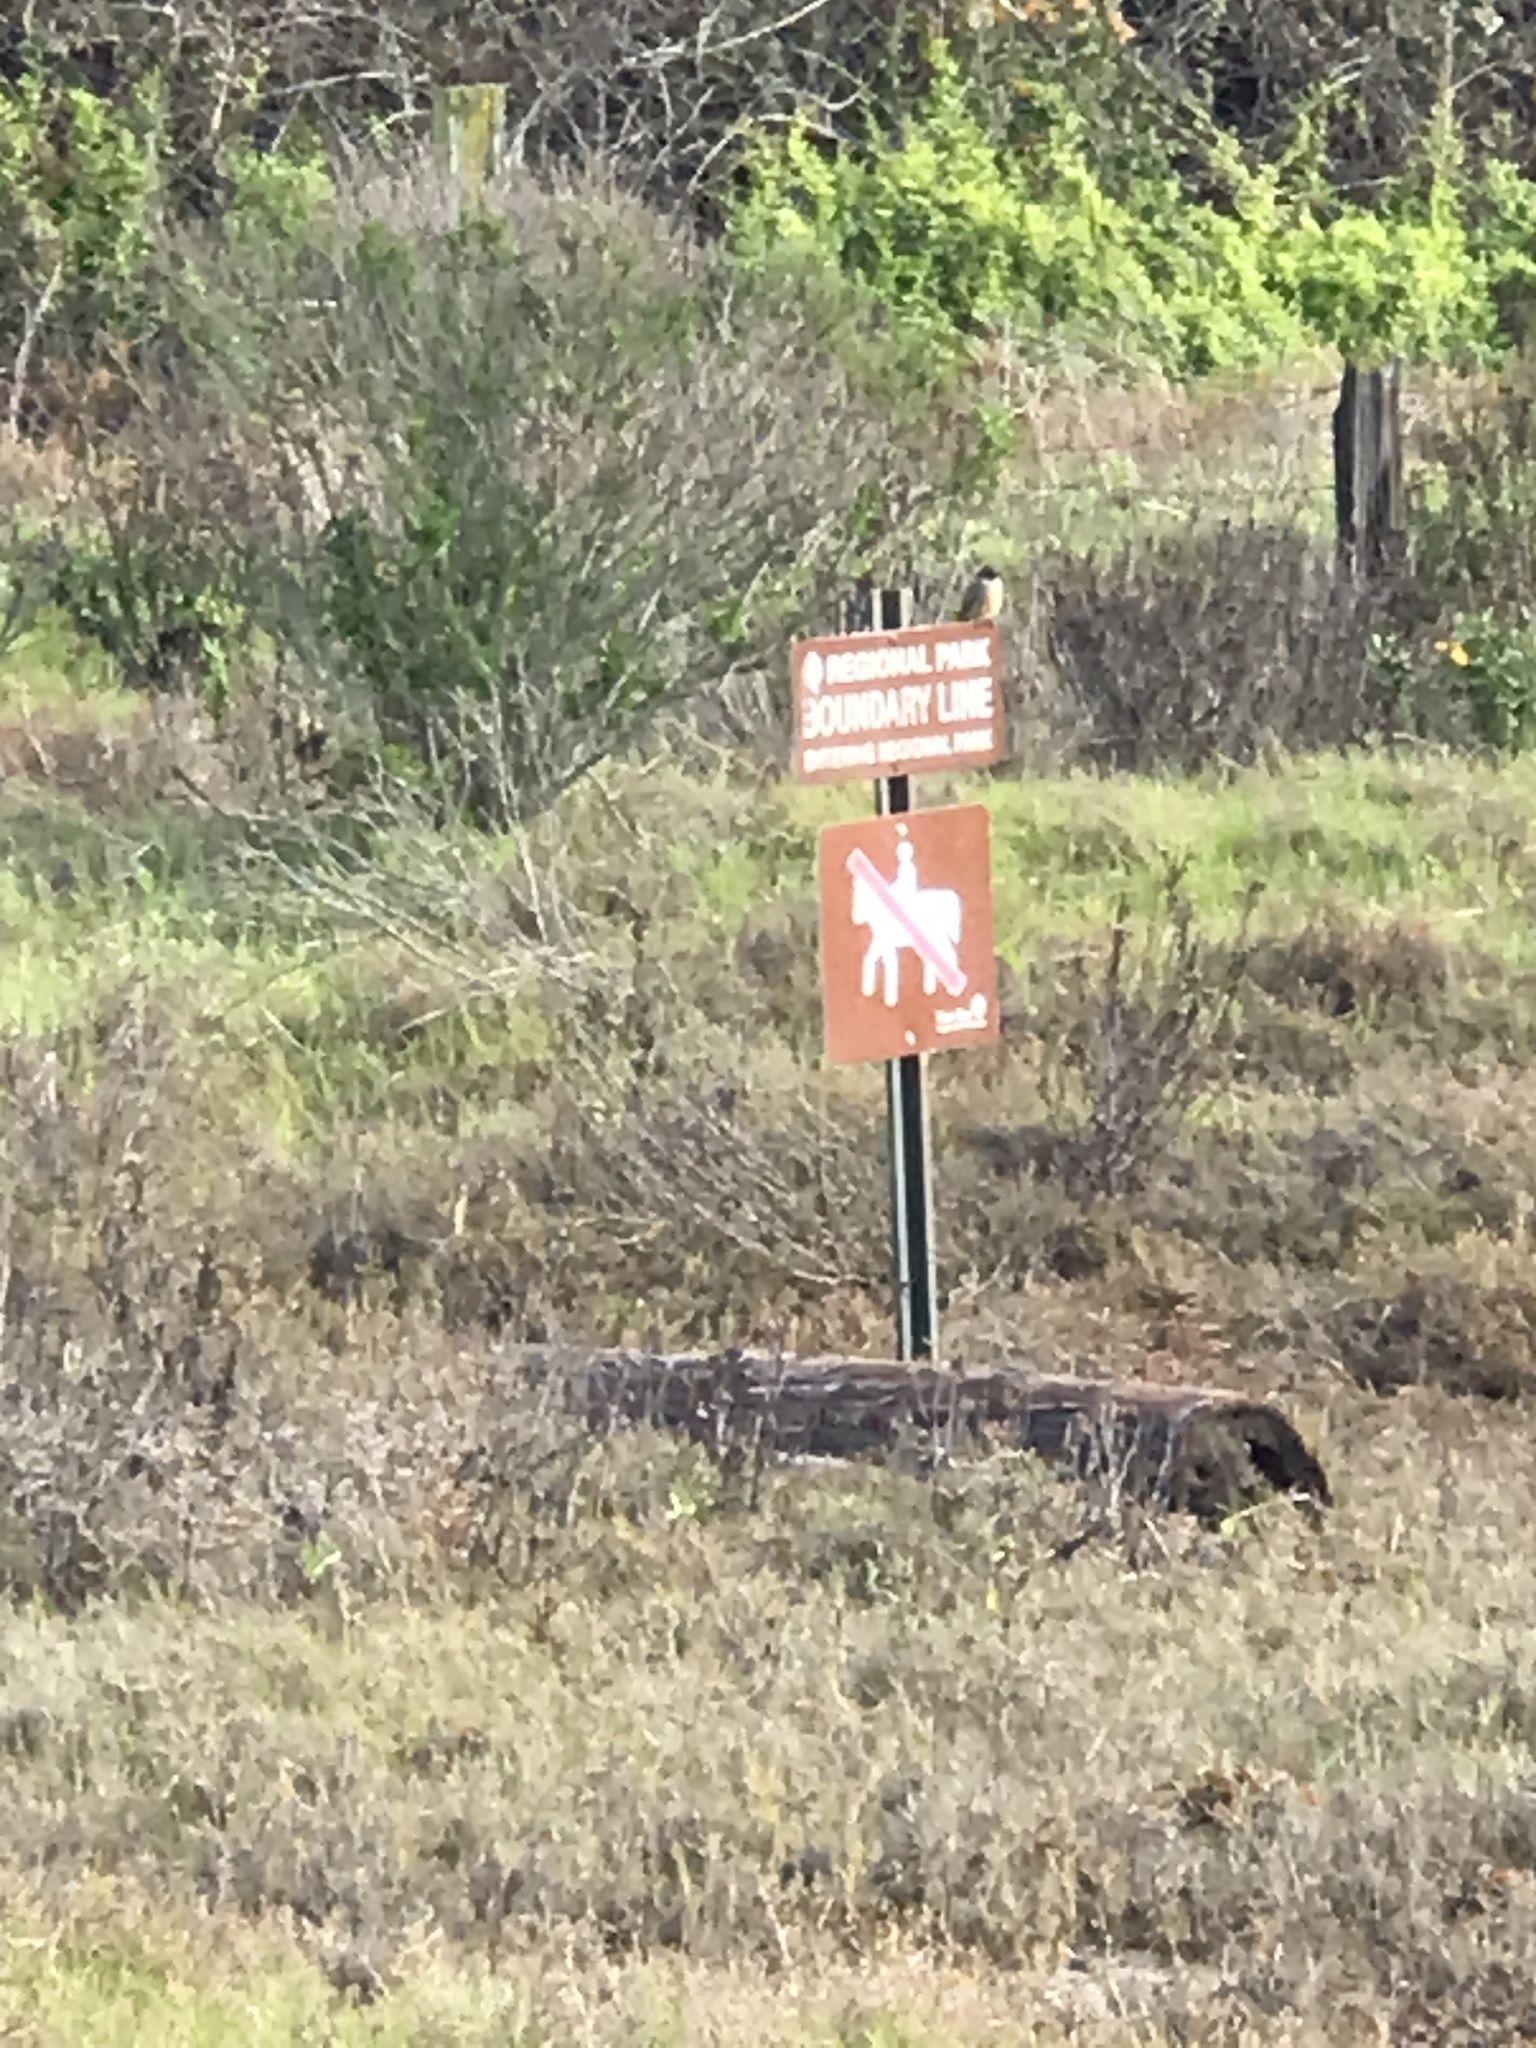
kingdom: Animalia
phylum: Chordata
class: Aves
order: Passeriformes
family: Tyrannidae
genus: Sayornis
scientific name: Sayornis saya
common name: Say's phoebe
